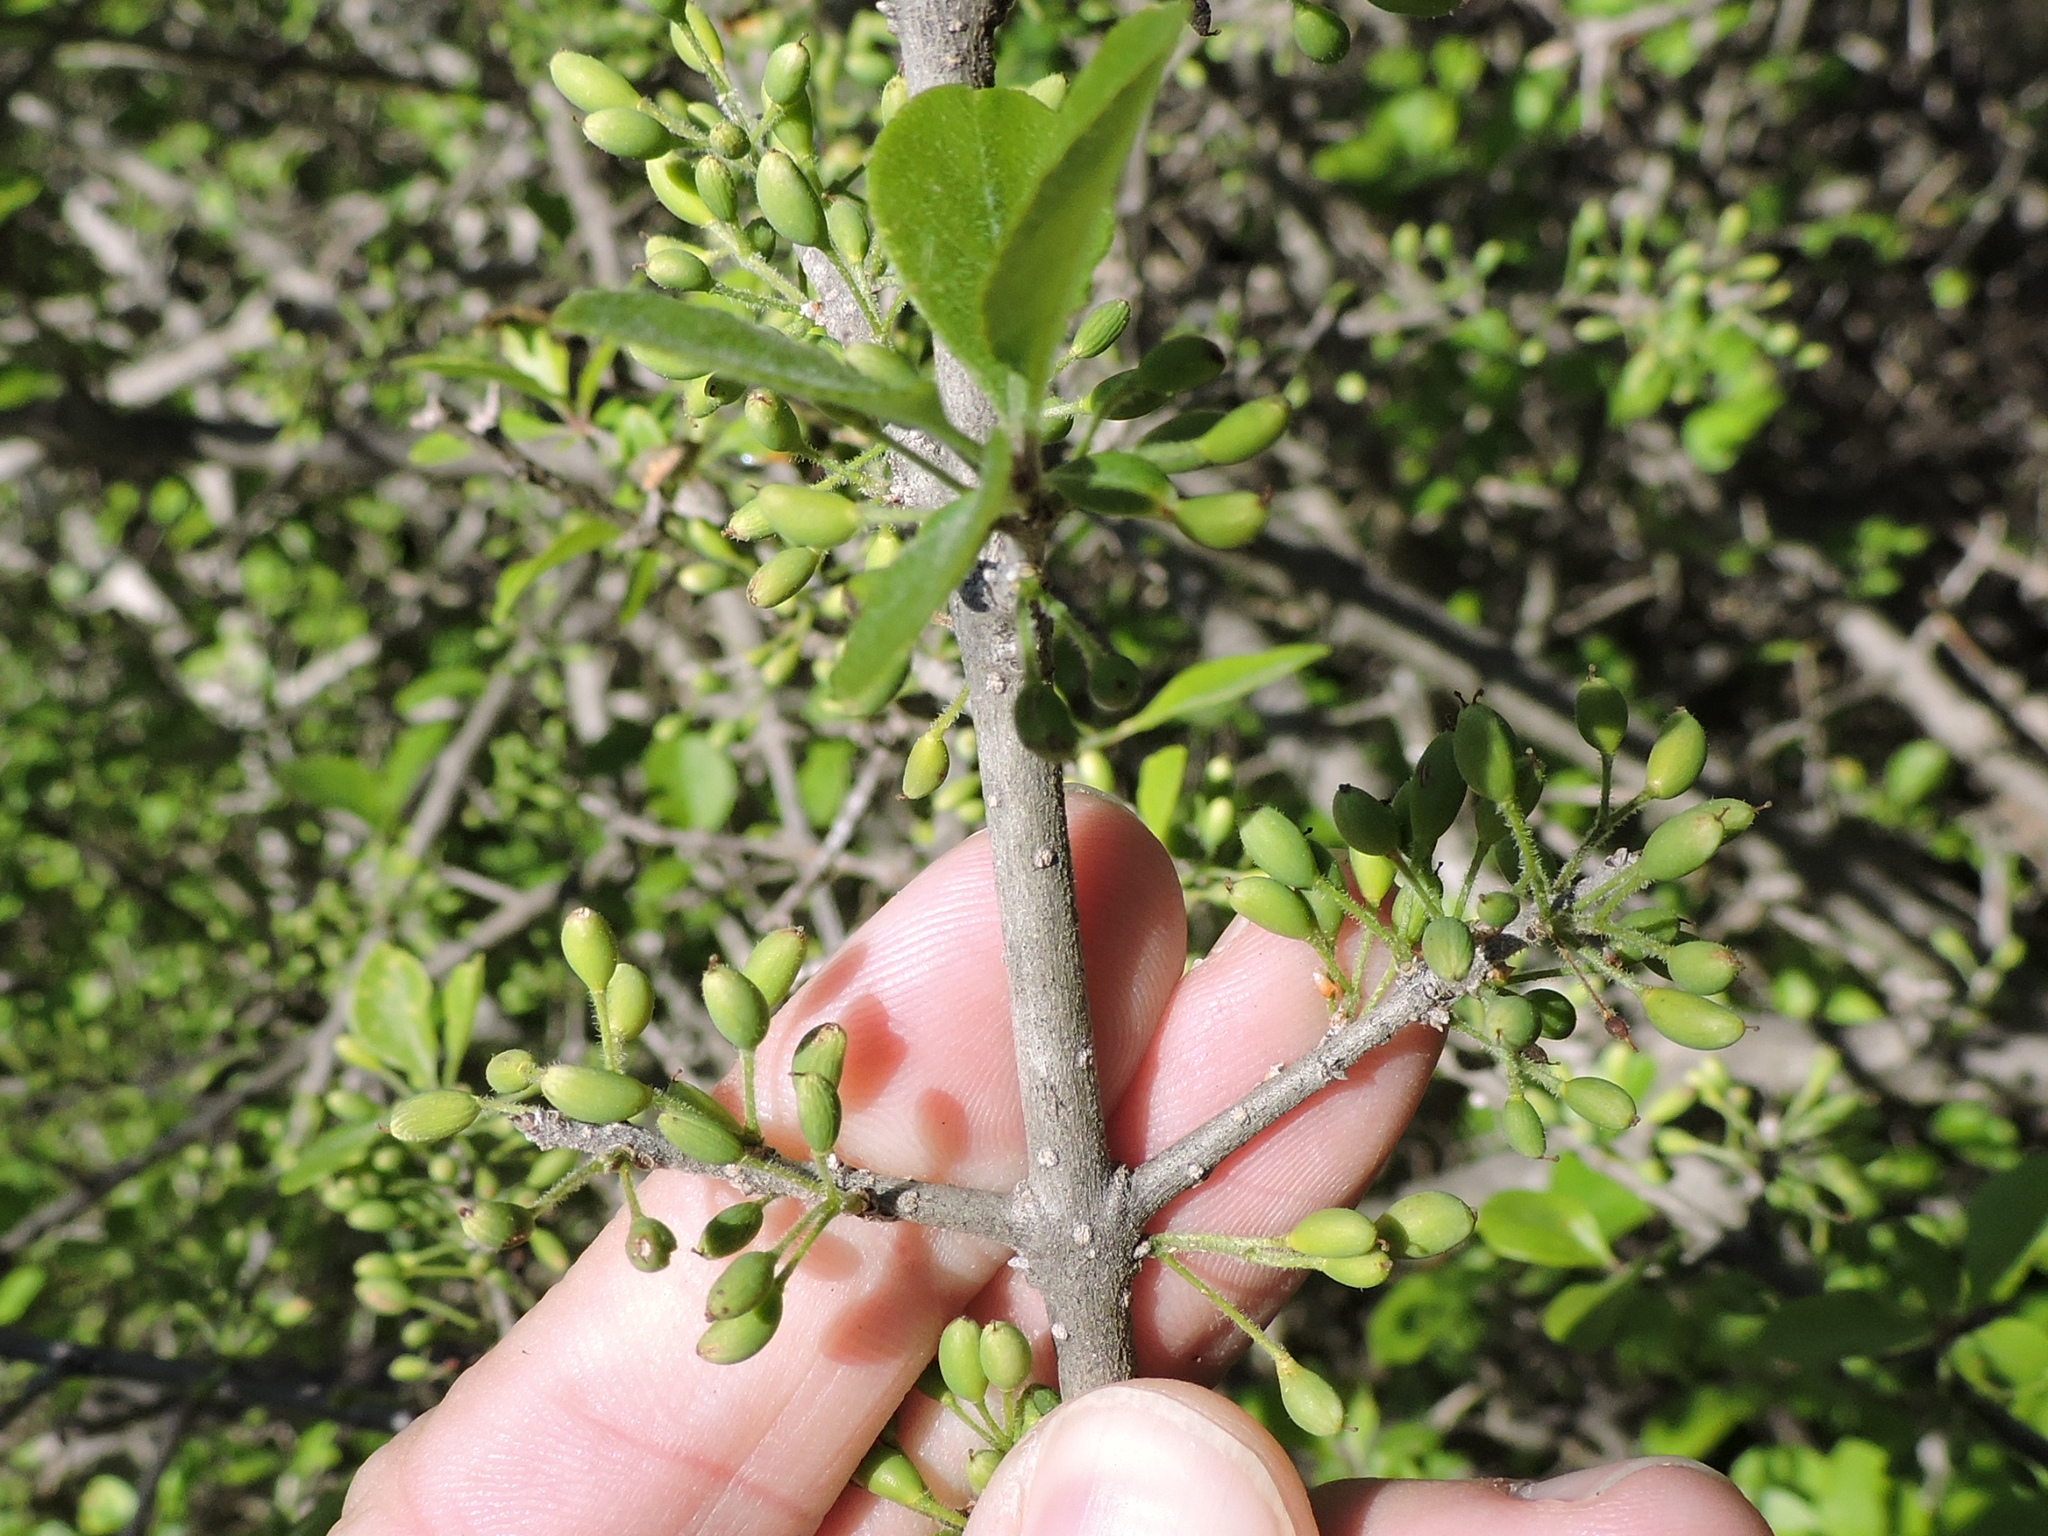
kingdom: Plantae
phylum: Tracheophyta
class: Magnoliopsida
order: Lamiales
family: Oleaceae
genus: Forestiera
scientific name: Forestiera pubescens
